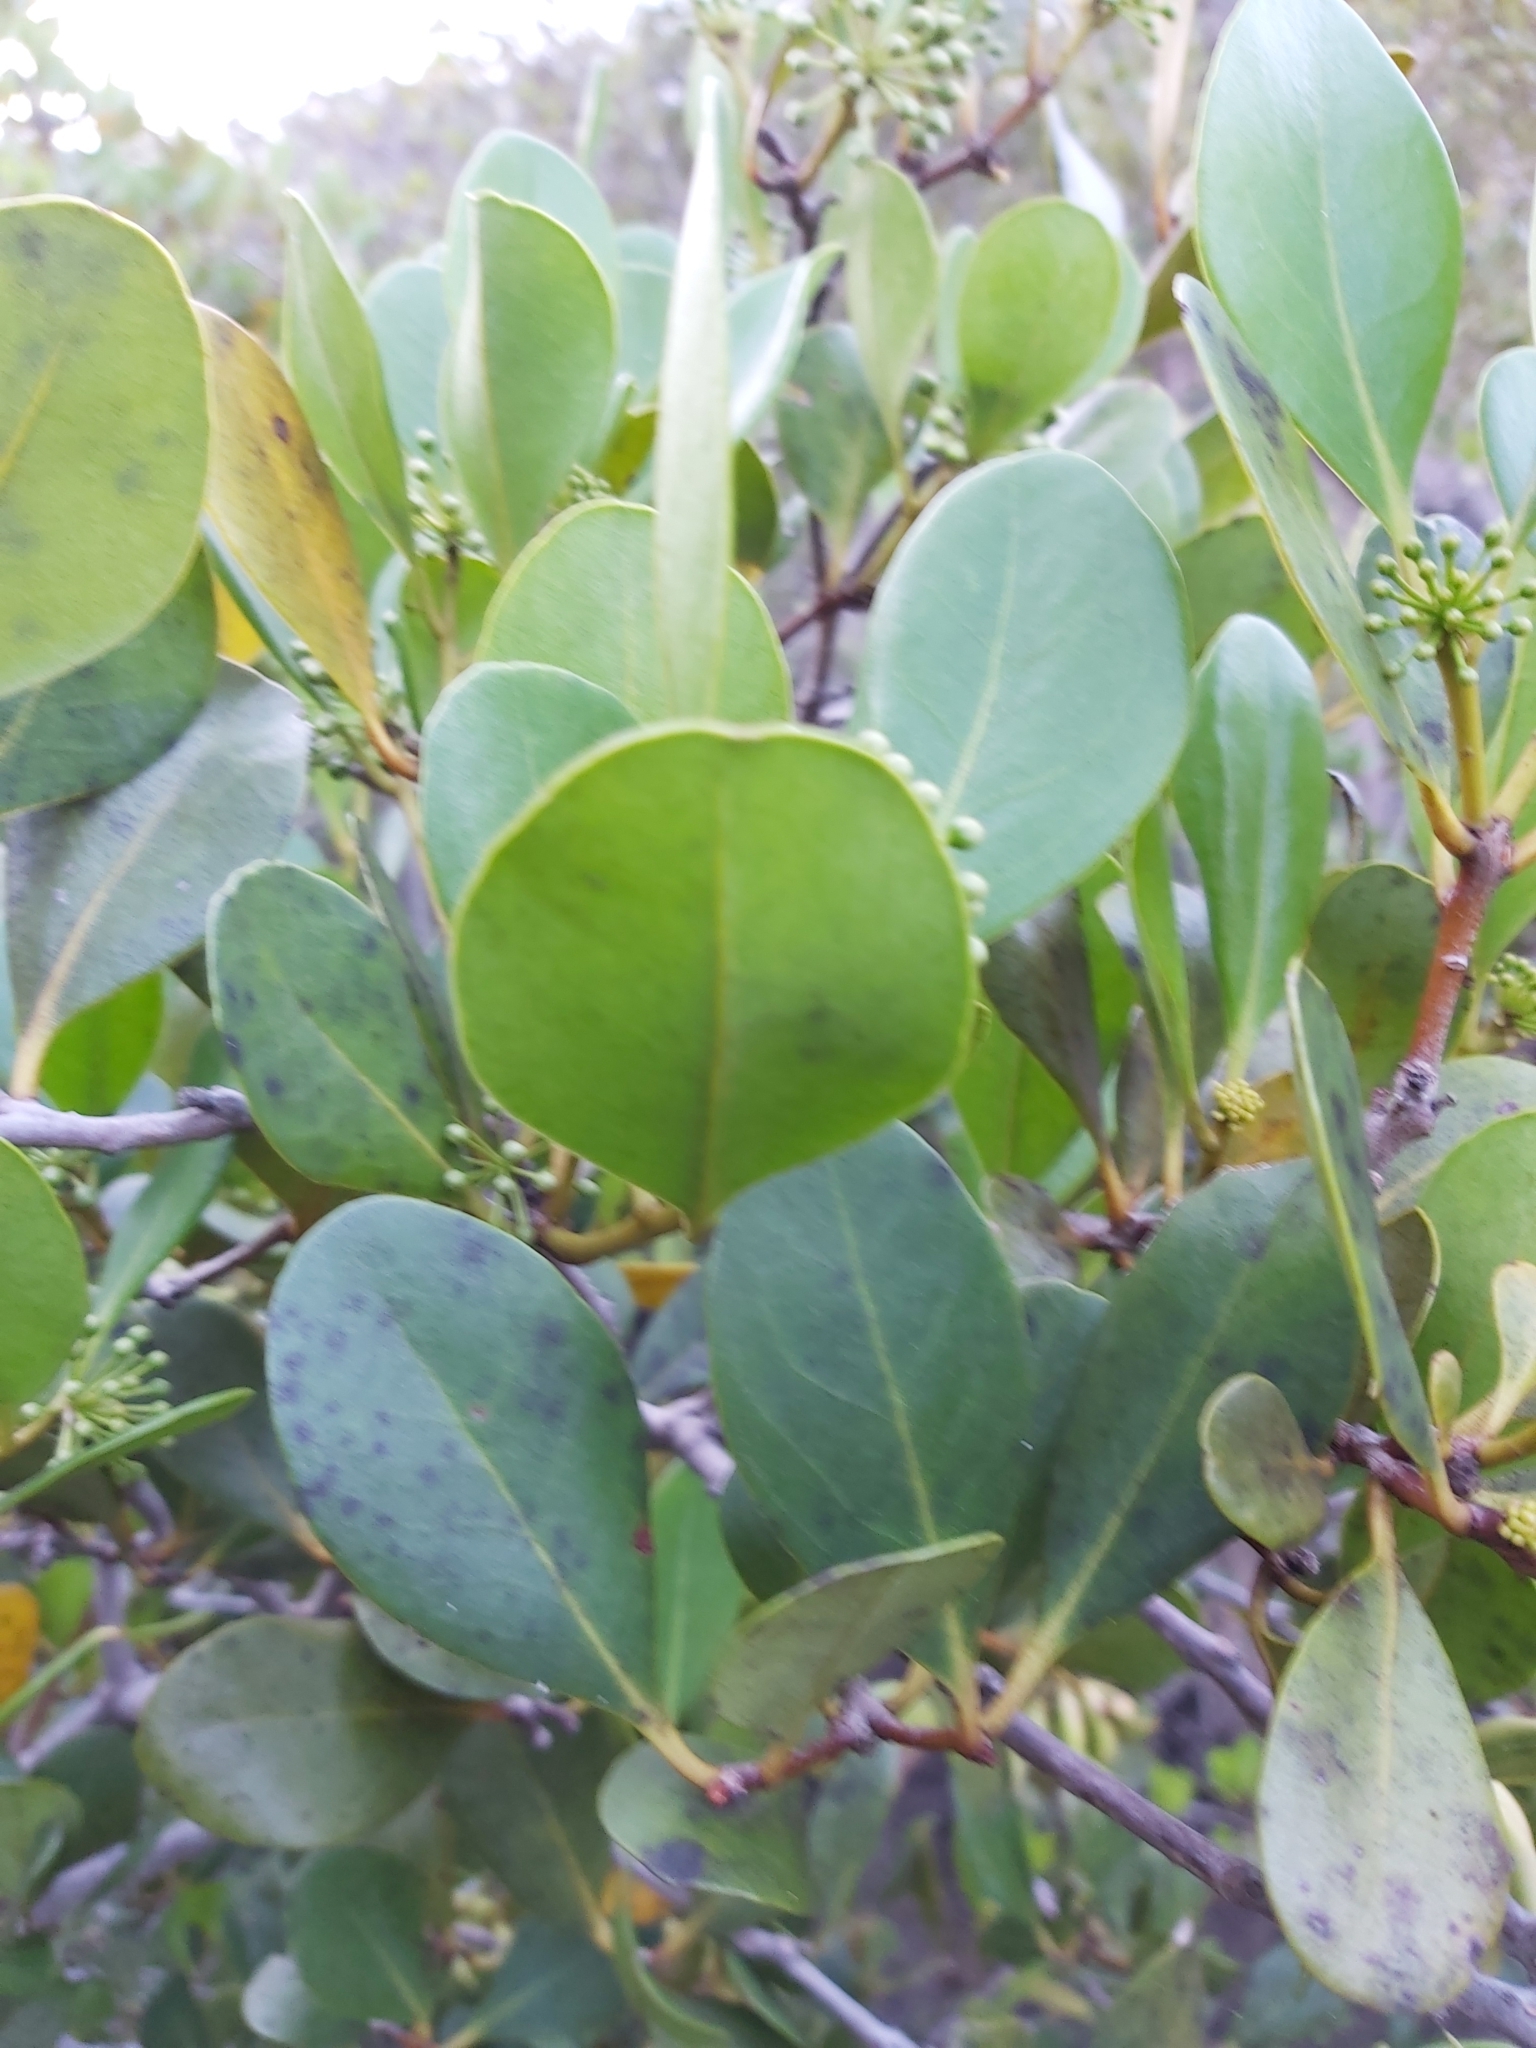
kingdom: Plantae
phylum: Tracheophyta
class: Magnoliopsida
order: Ericales
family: Primulaceae
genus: Aegiceras
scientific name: Aegiceras corniculatum
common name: River mangrove
